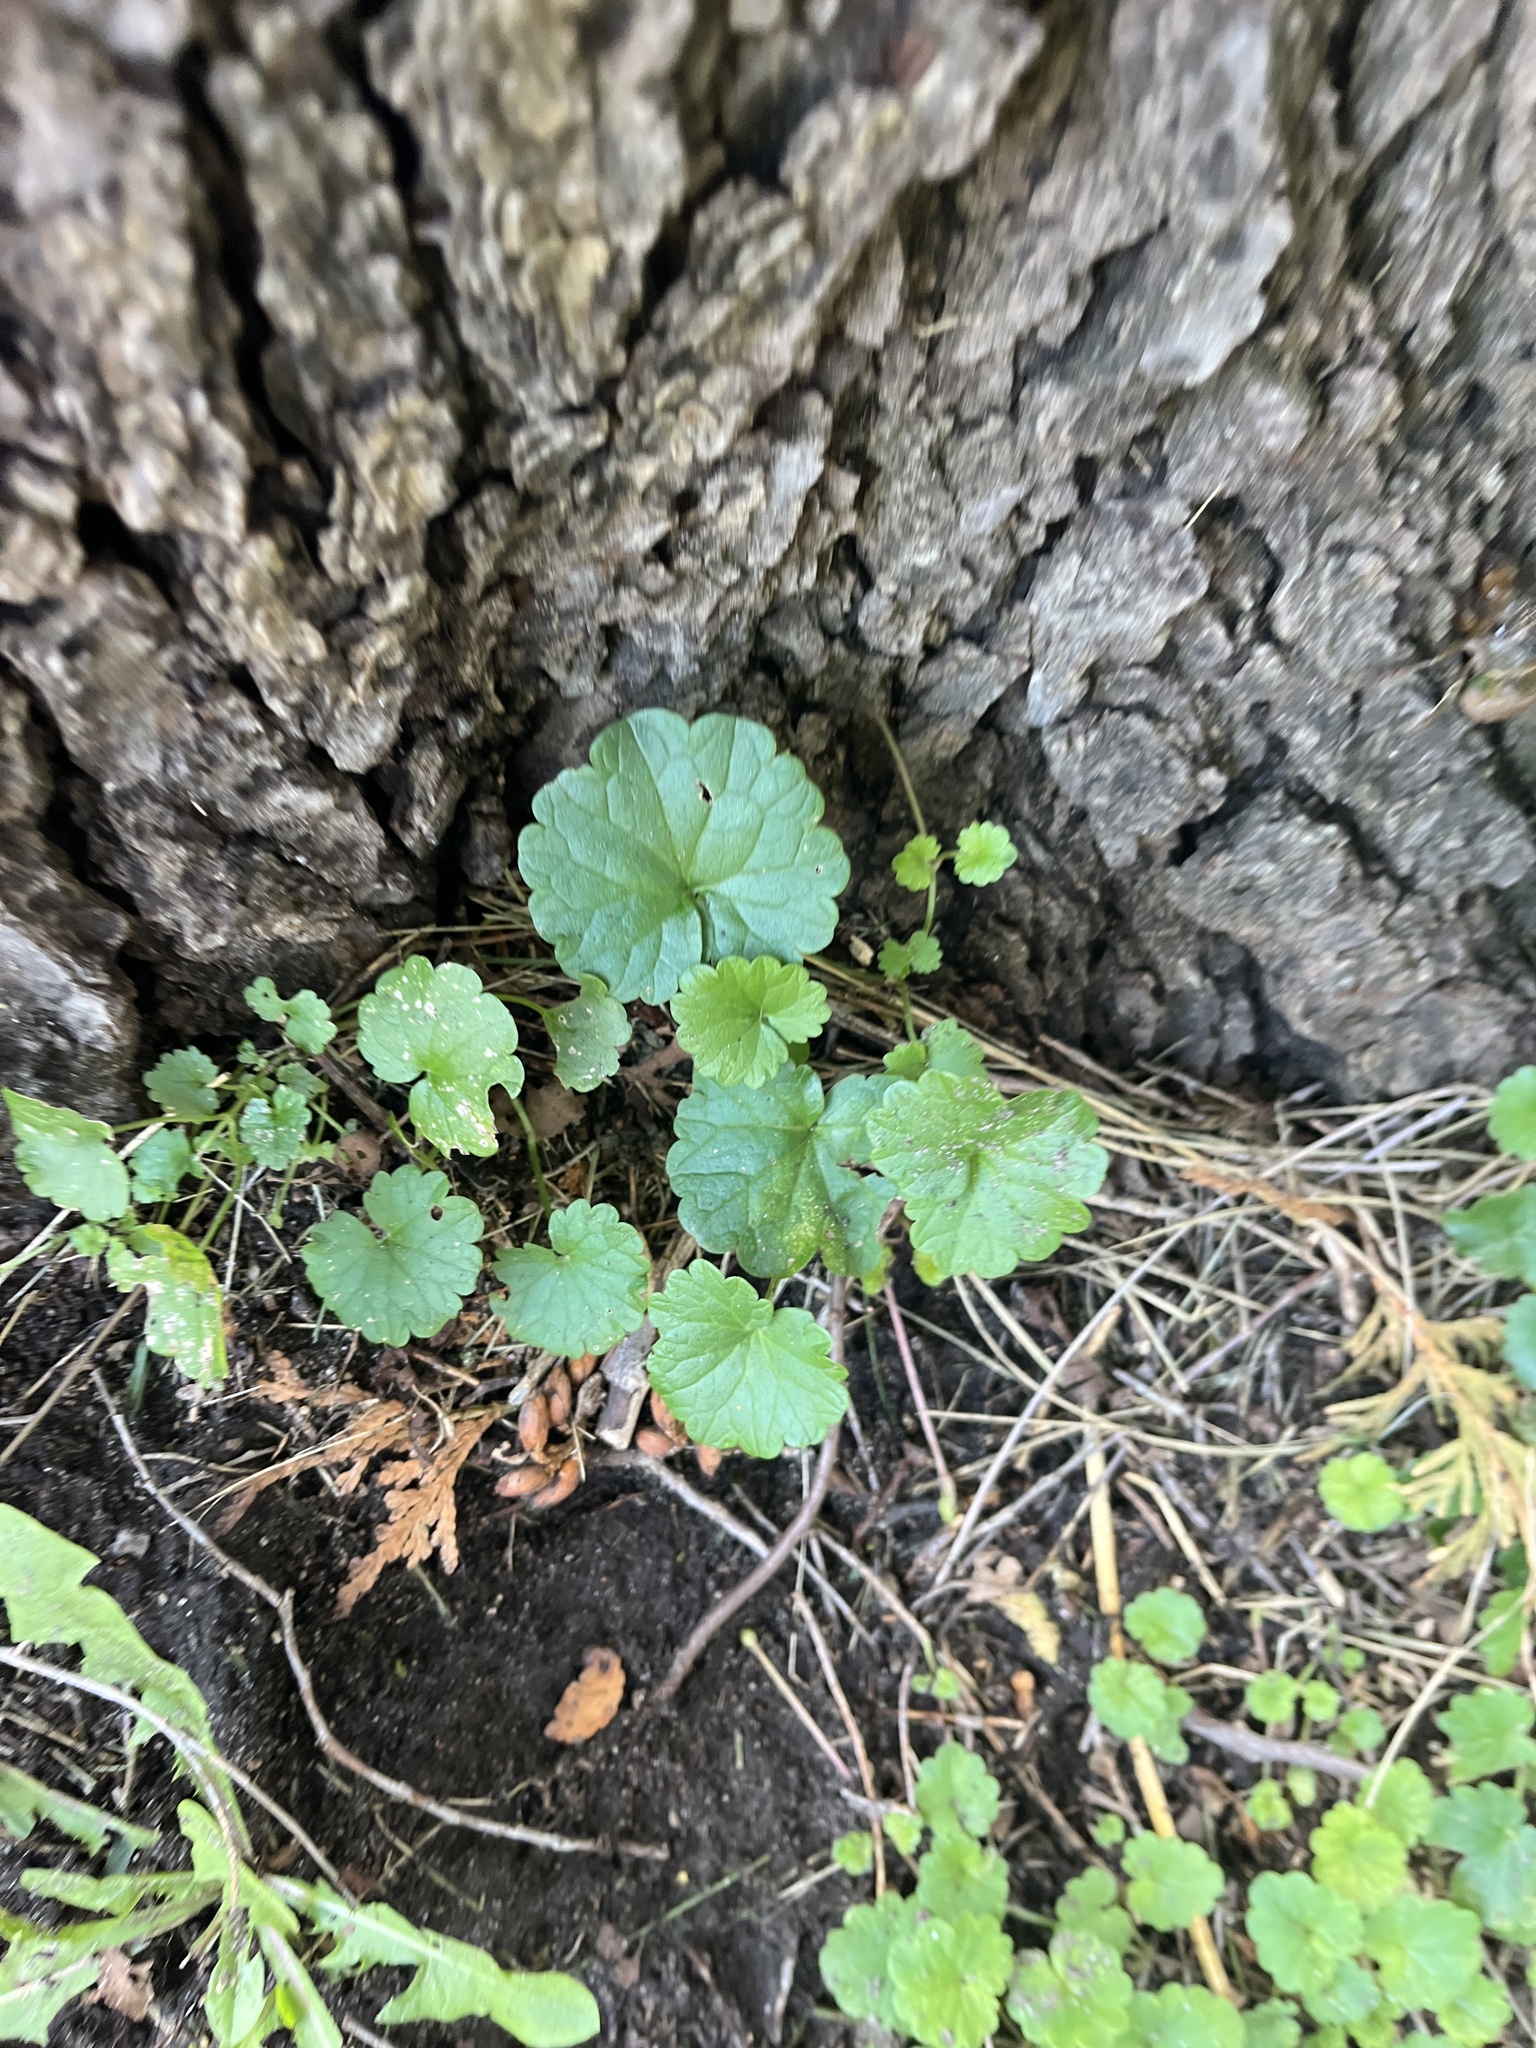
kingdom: Plantae
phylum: Tracheophyta
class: Magnoliopsida
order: Lamiales
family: Lamiaceae
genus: Glechoma
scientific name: Glechoma hederacea
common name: Ground ivy
